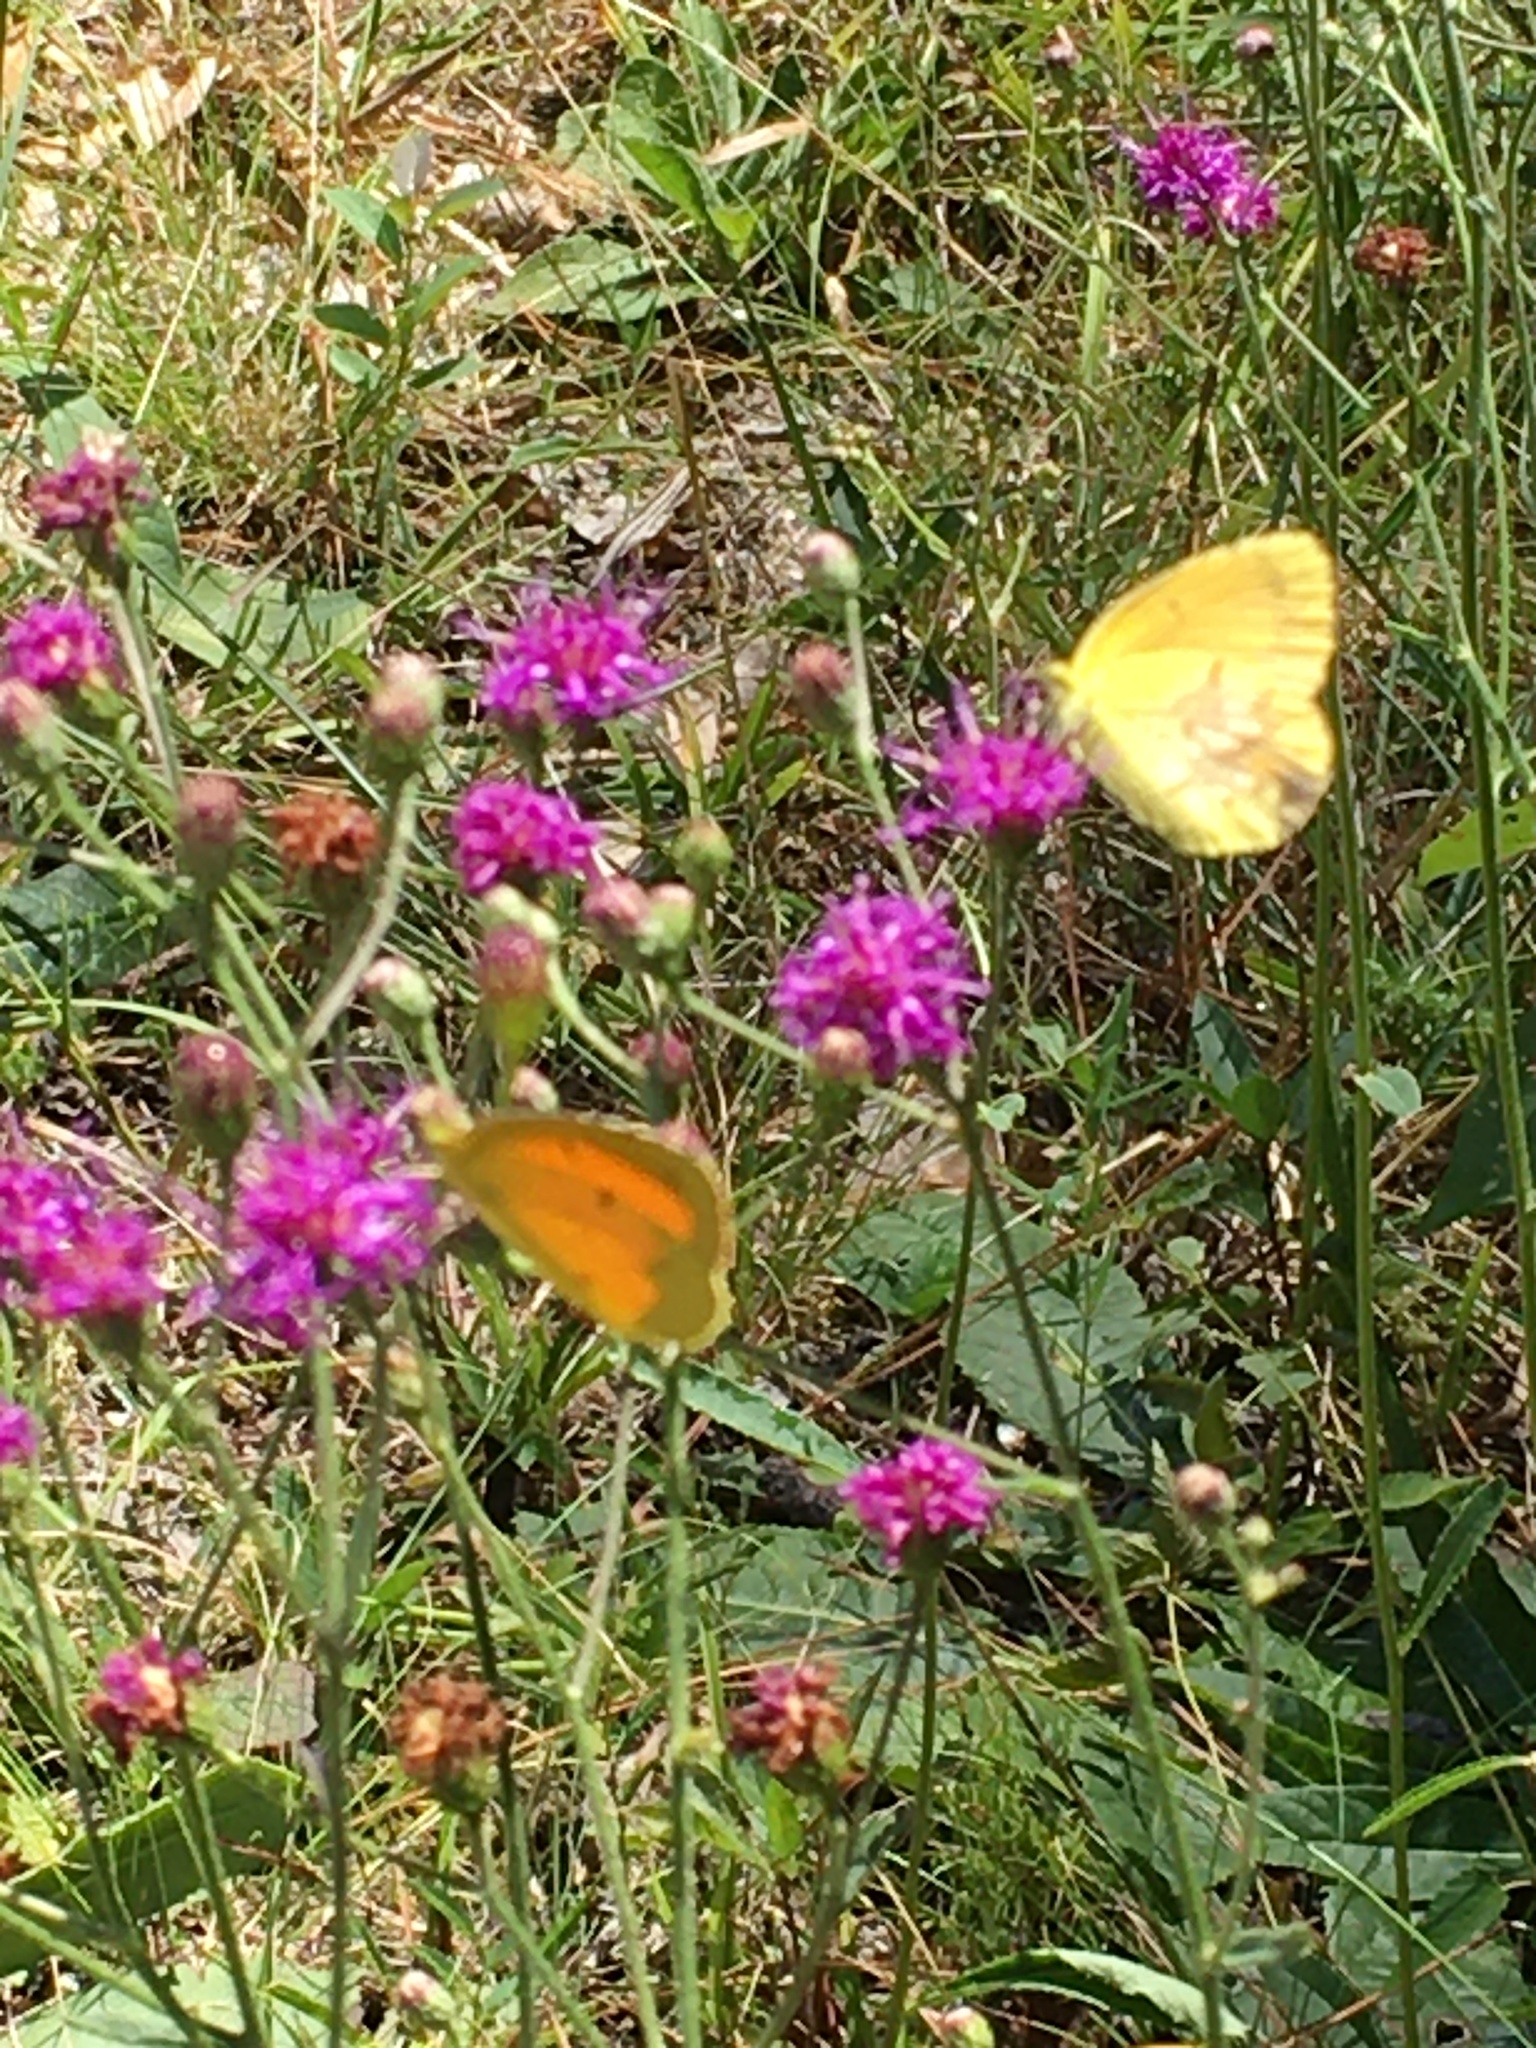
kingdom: Animalia
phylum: Arthropoda
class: Insecta
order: Lepidoptera
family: Pieridae
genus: Abaeis
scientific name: Abaeis nicippe
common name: Sleepy orange
